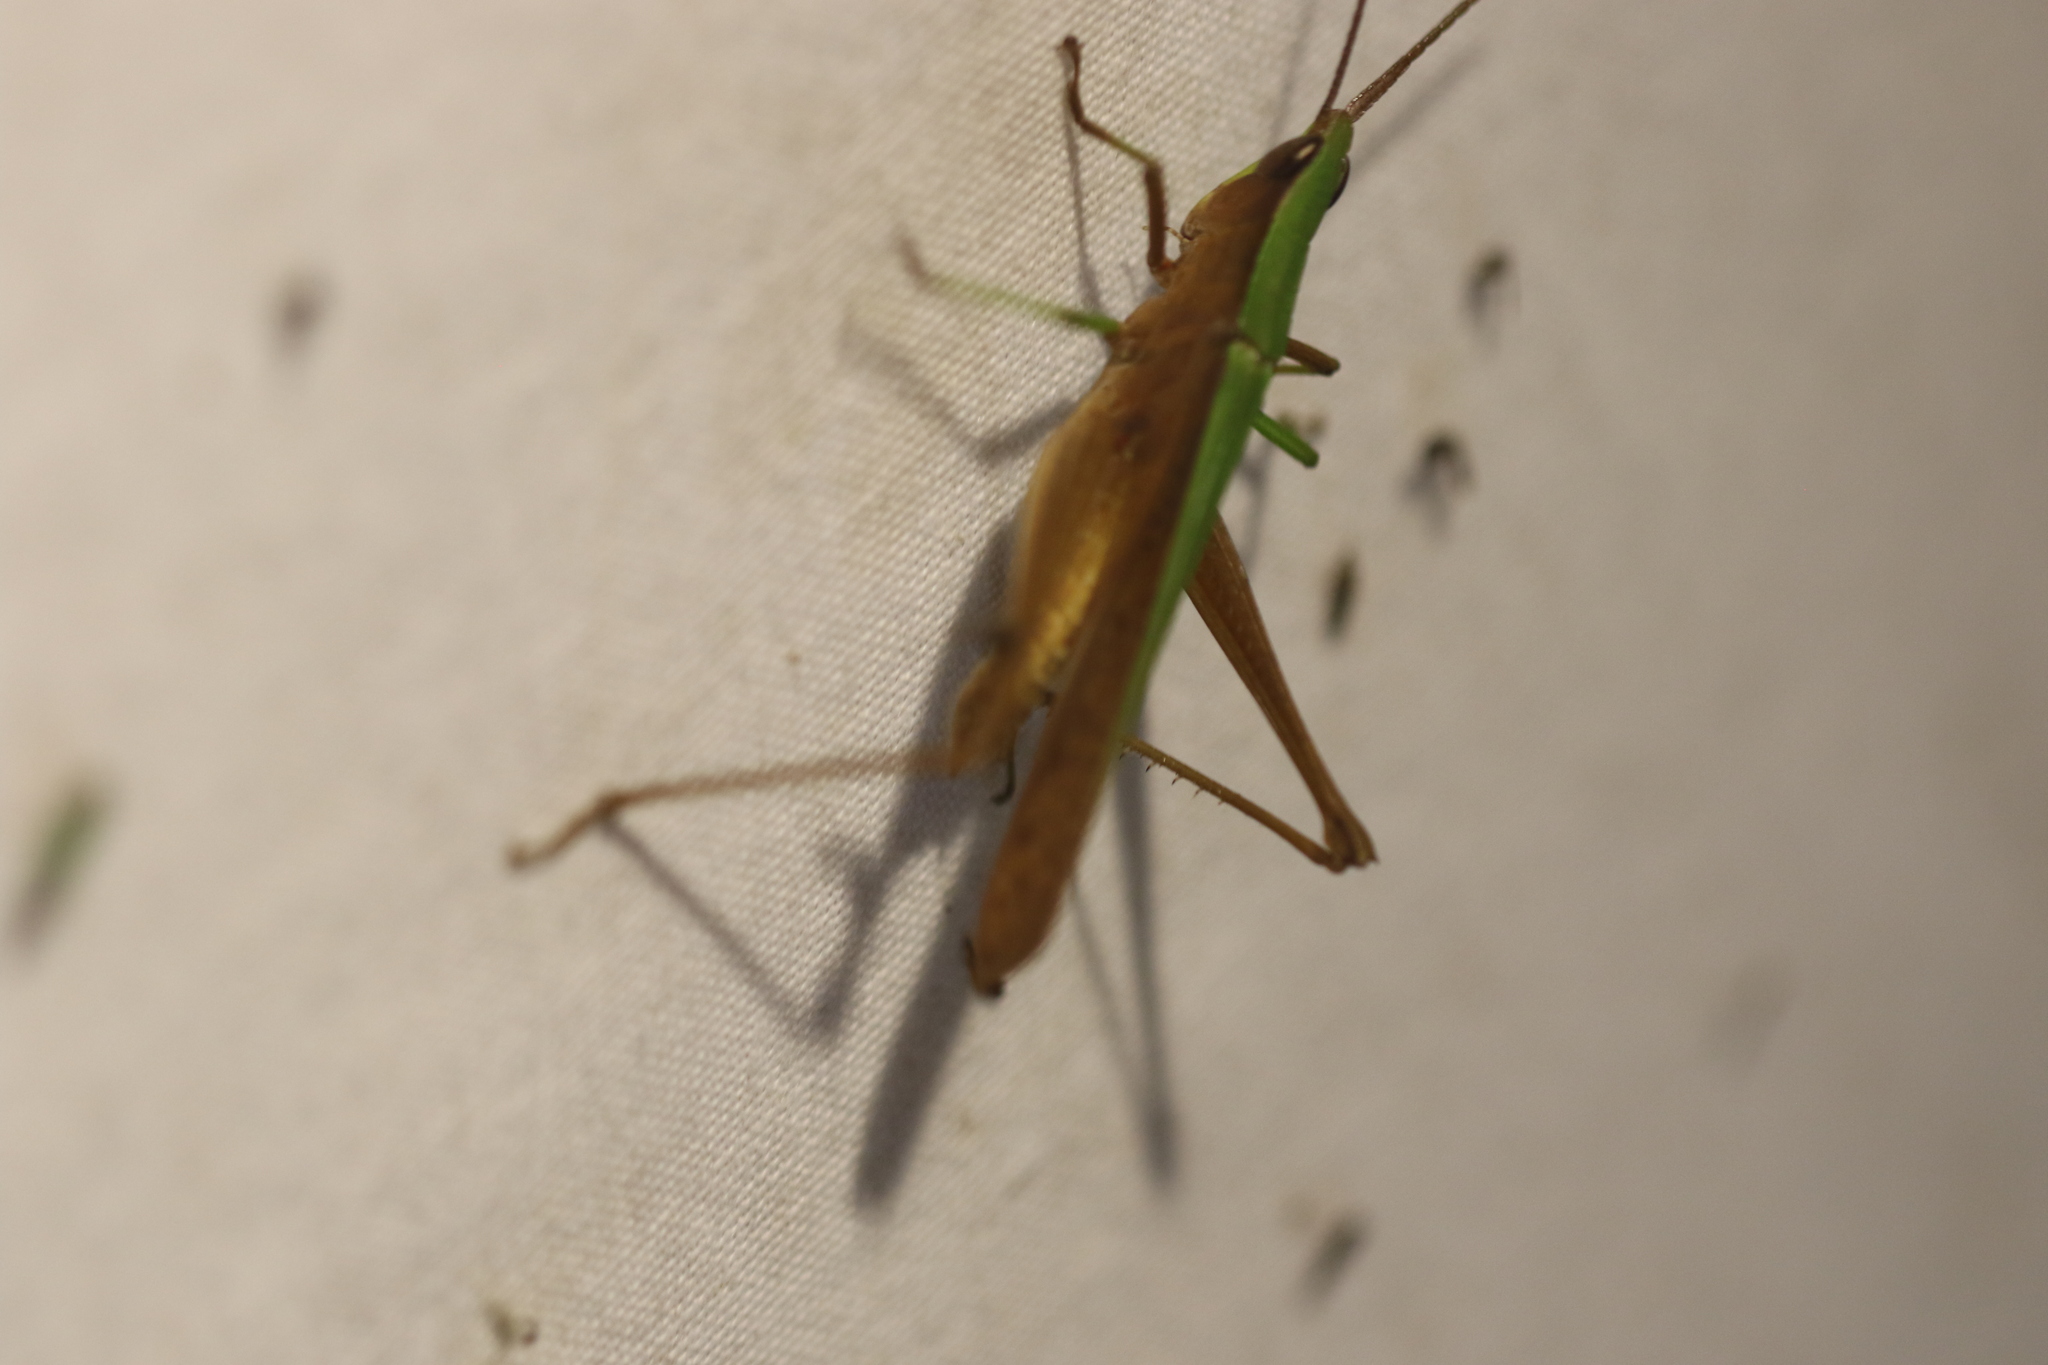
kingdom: Animalia
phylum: Arthropoda
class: Insecta
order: Orthoptera
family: Acrididae
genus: Metaleptea
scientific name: Metaleptea adspersa
